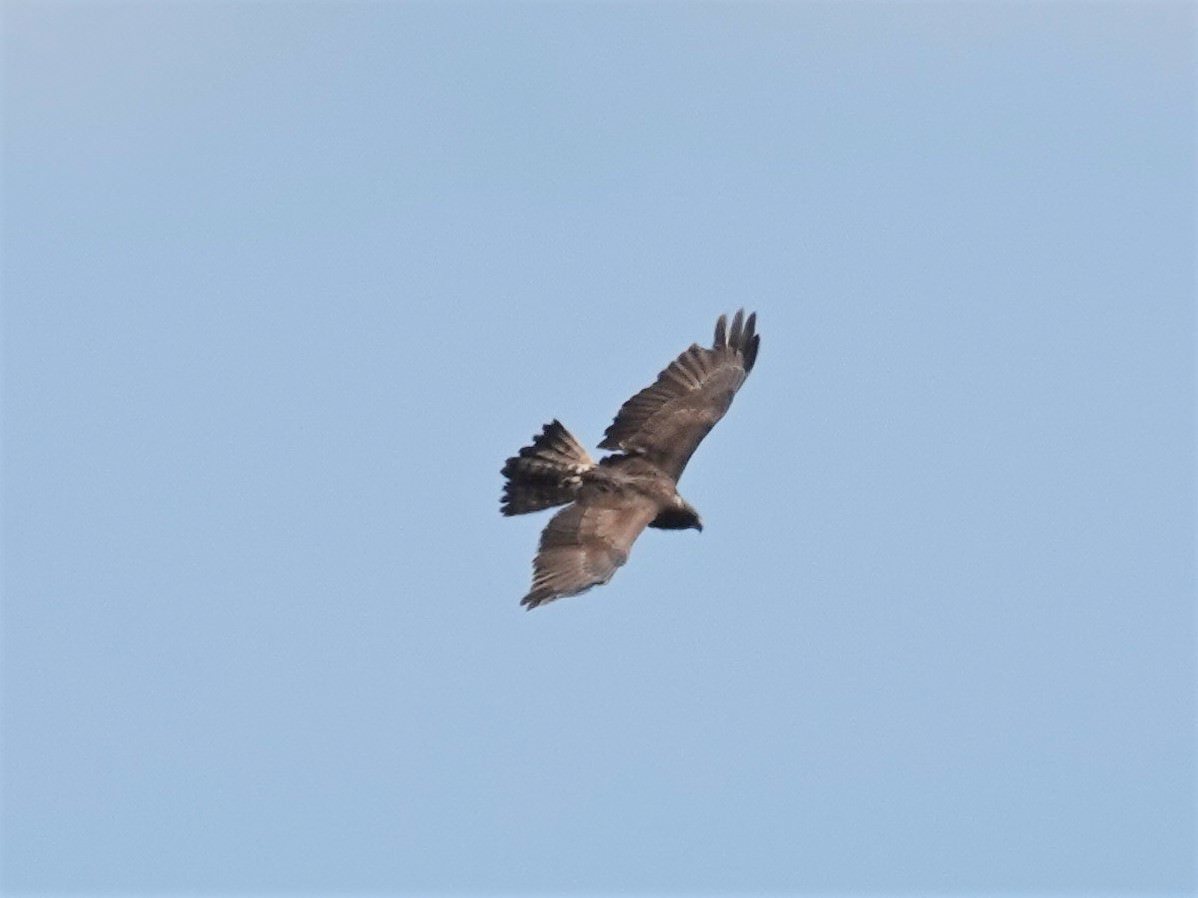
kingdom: Animalia
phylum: Chordata
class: Aves
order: Accipitriformes
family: Accipitridae
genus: Circus
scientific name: Circus approximans
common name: Swamp harrier
